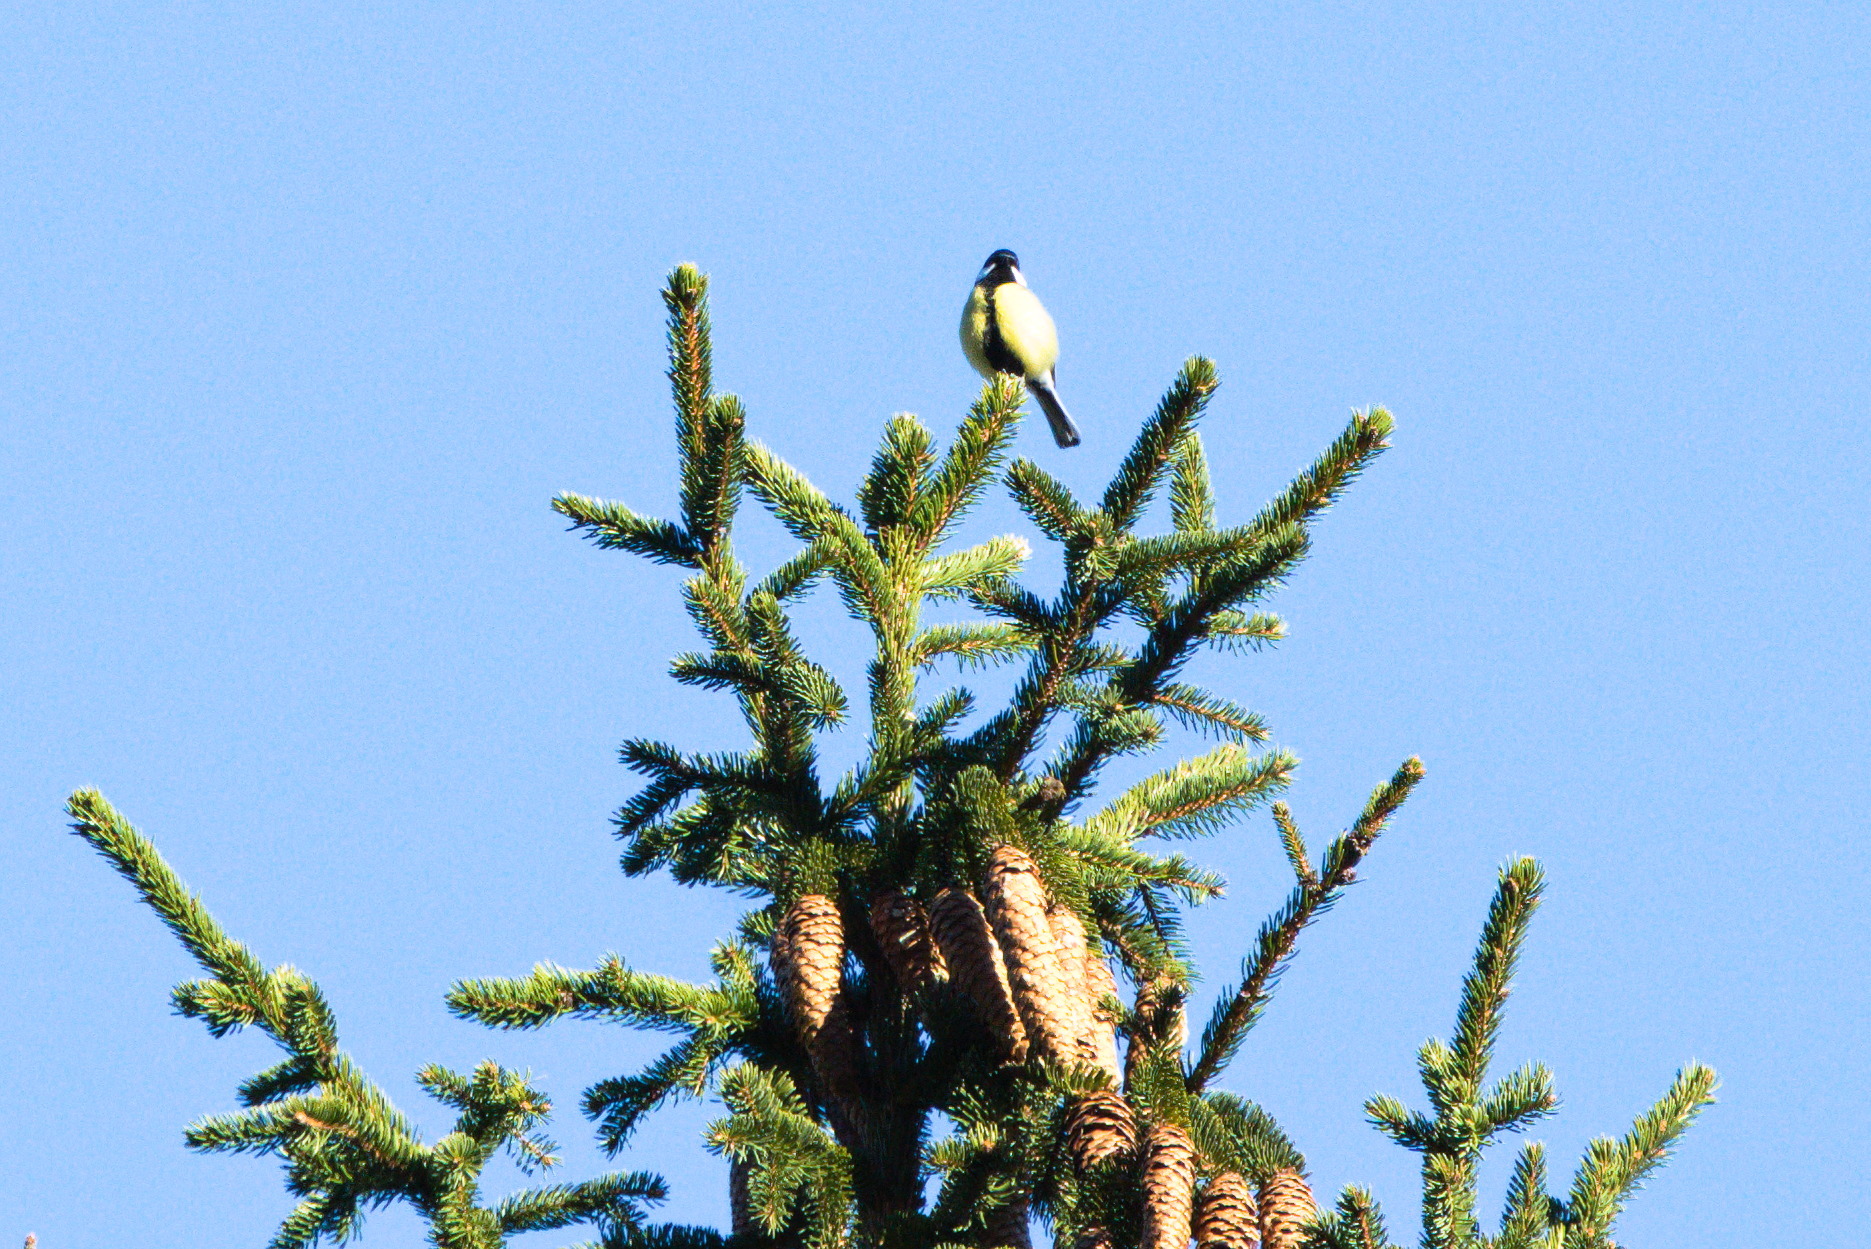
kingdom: Animalia
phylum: Chordata
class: Aves
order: Passeriformes
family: Paridae
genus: Parus
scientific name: Parus major
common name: Great tit
